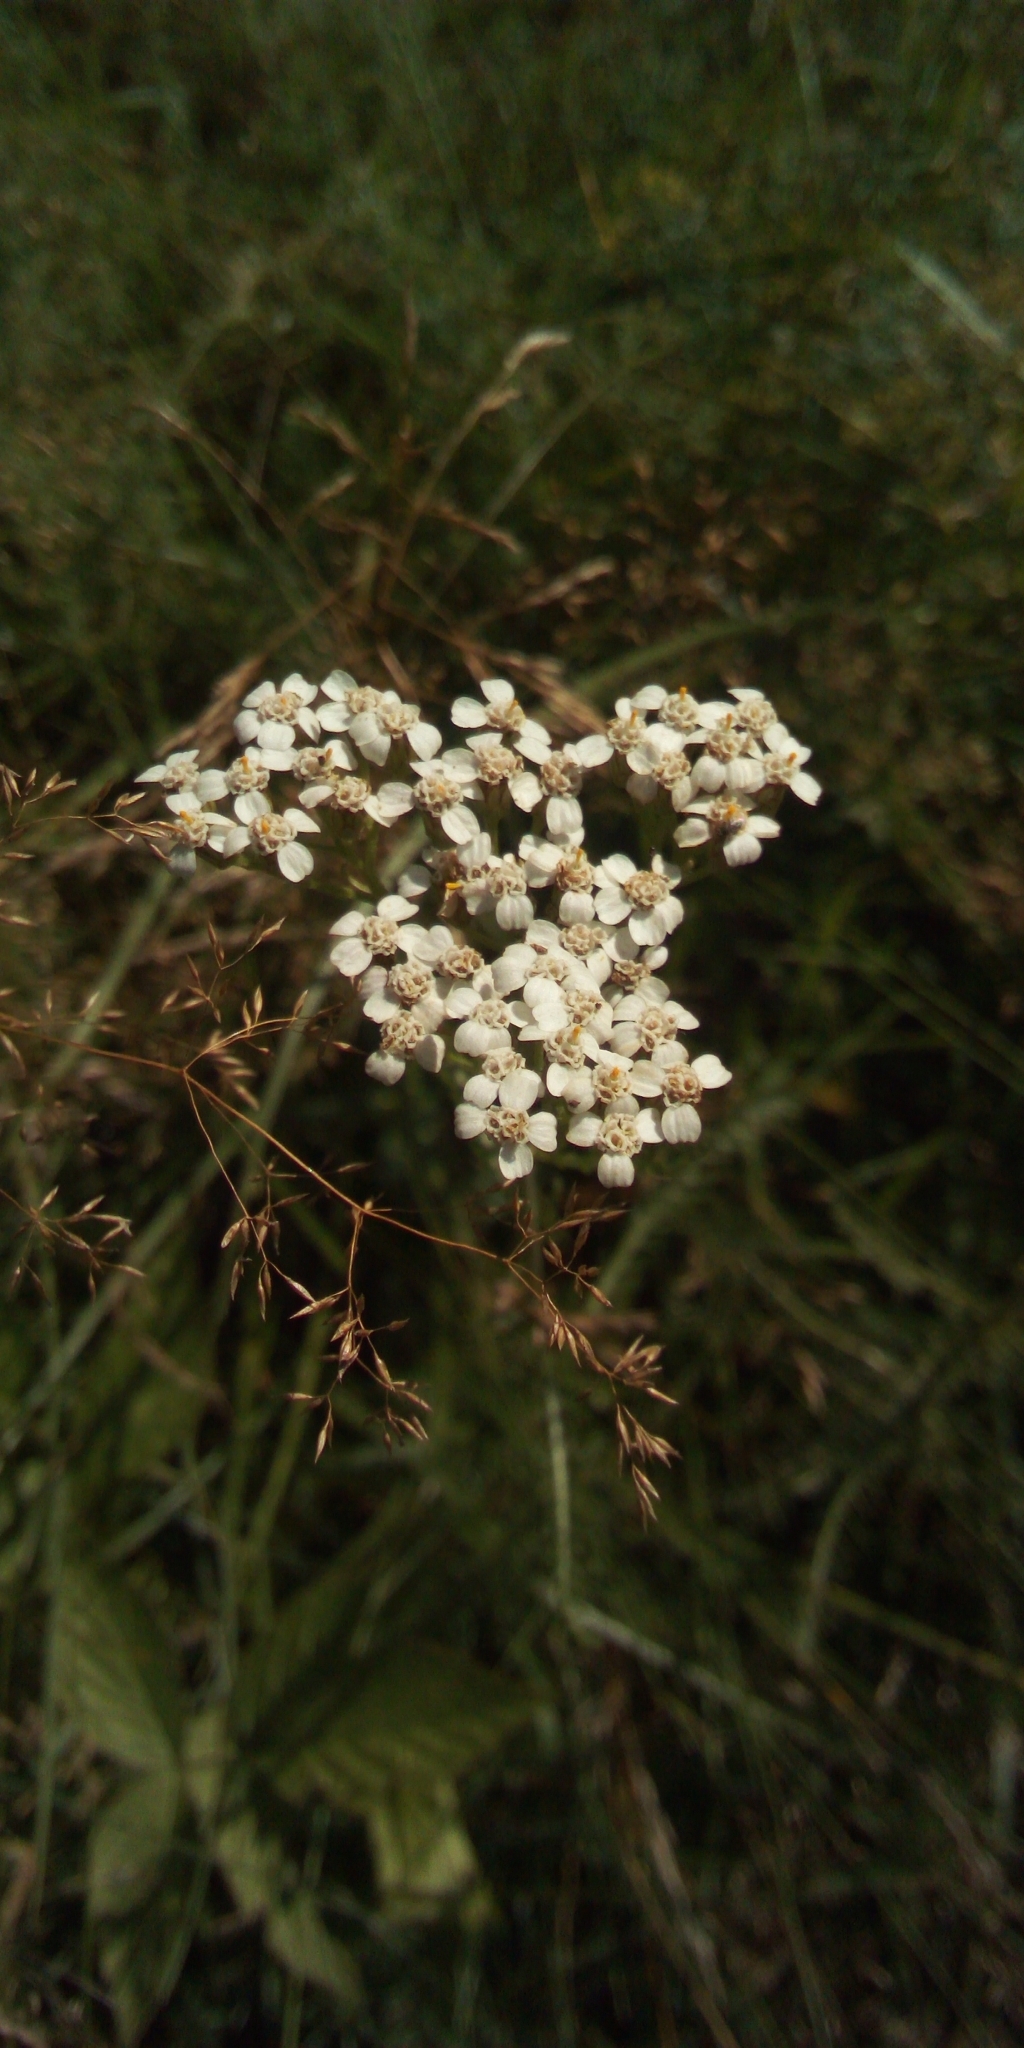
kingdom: Plantae
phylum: Tracheophyta
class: Magnoliopsida
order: Asterales
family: Asteraceae
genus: Achillea
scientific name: Achillea millefolium
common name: Yarrow
